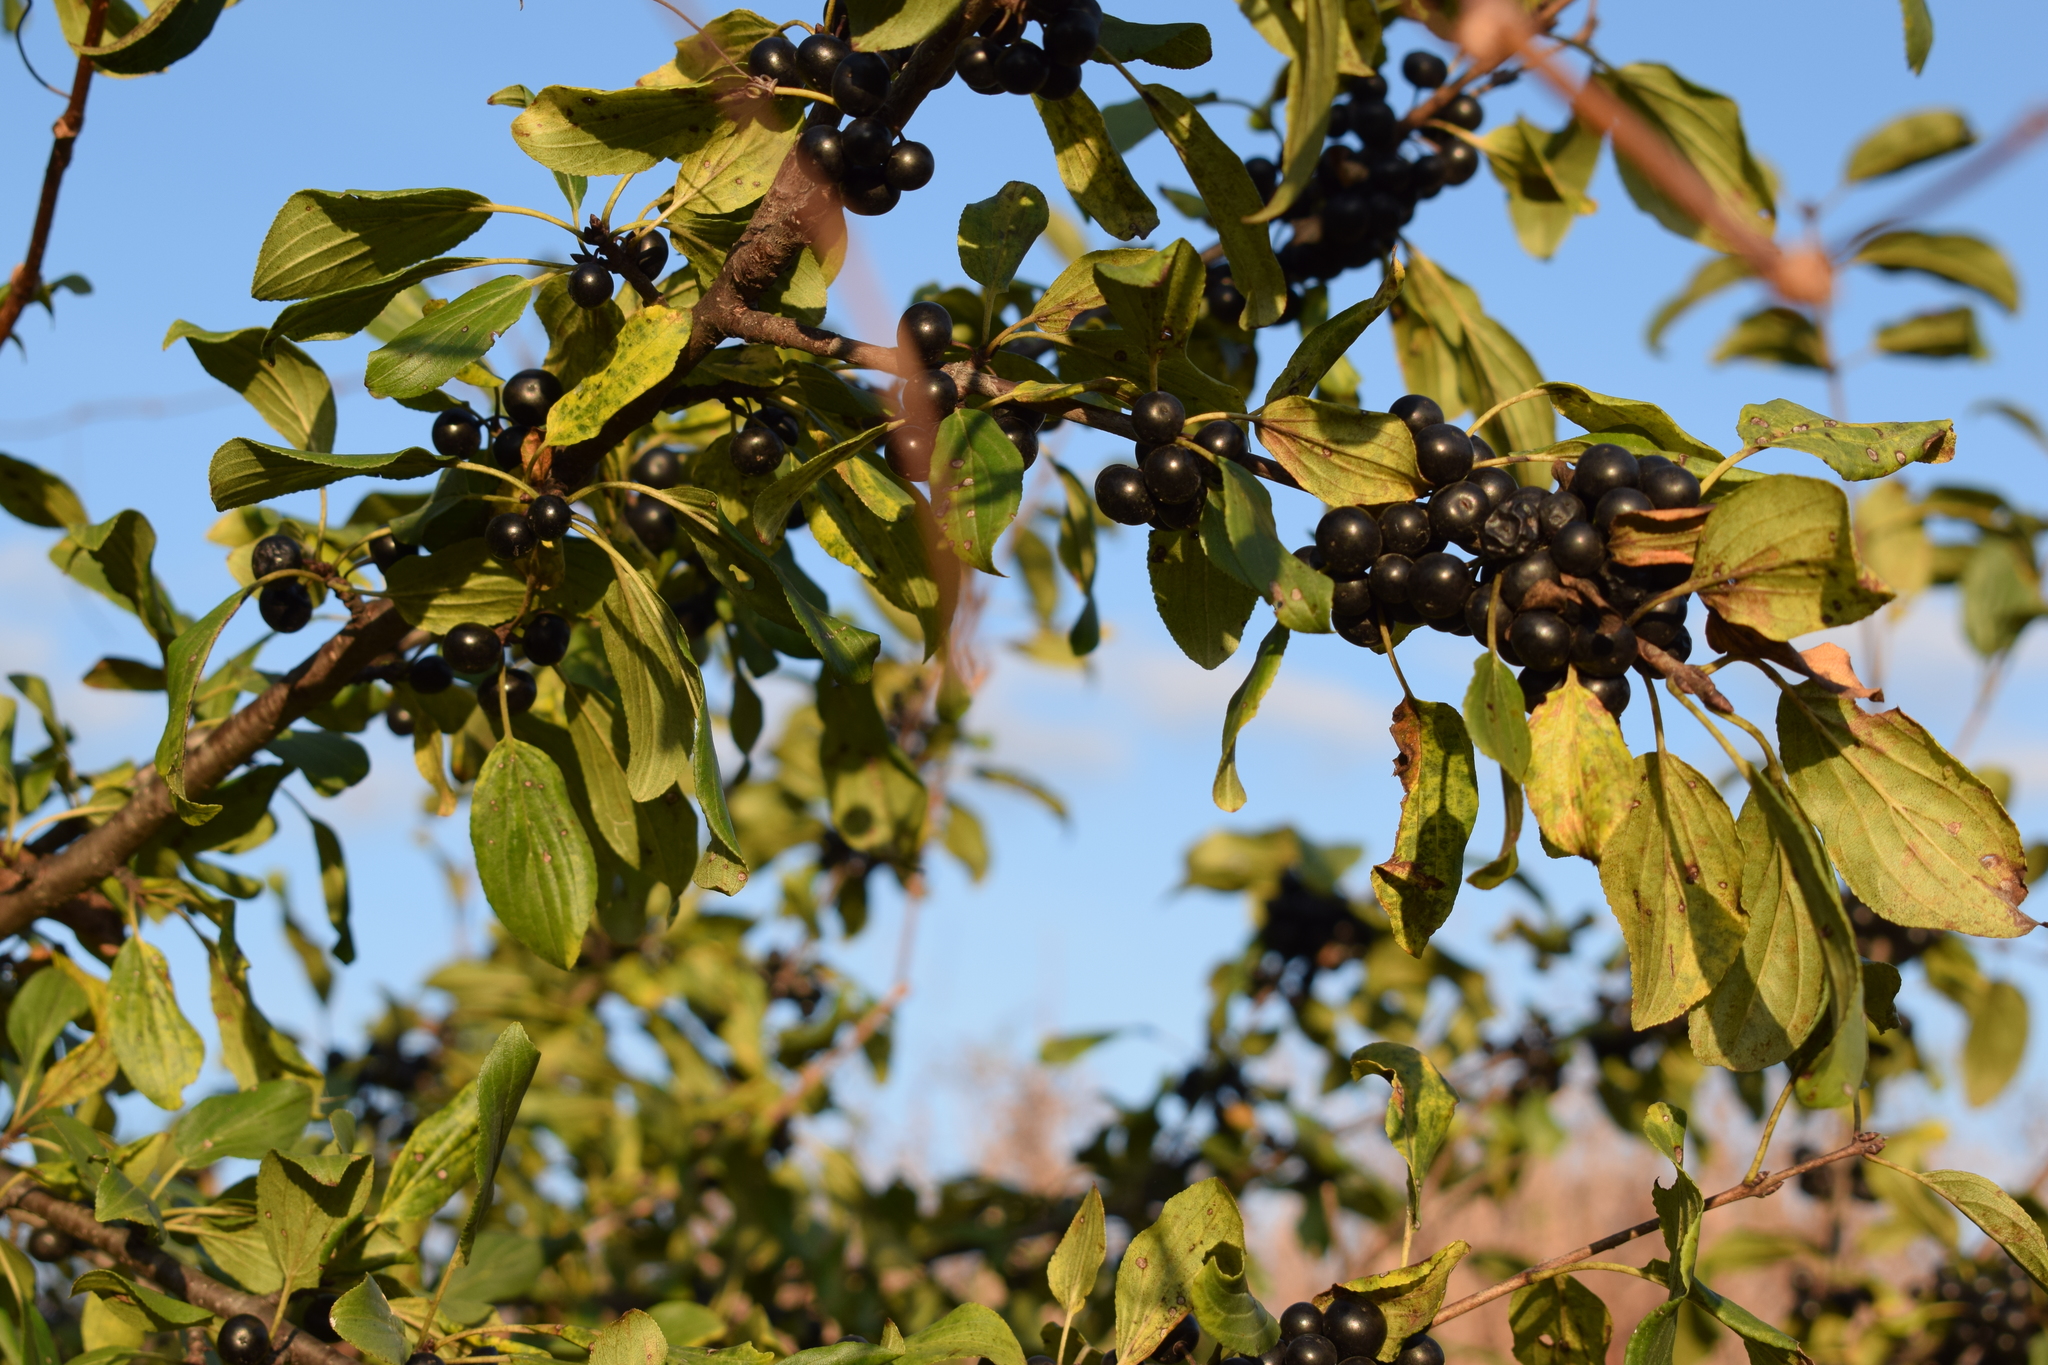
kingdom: Plantae
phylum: Tracheophyta
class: Magnoliopsida
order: Rosales
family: Rhamnaceae
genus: Rhamnus
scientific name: Rhamnus cathartica
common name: Common buckthorn
